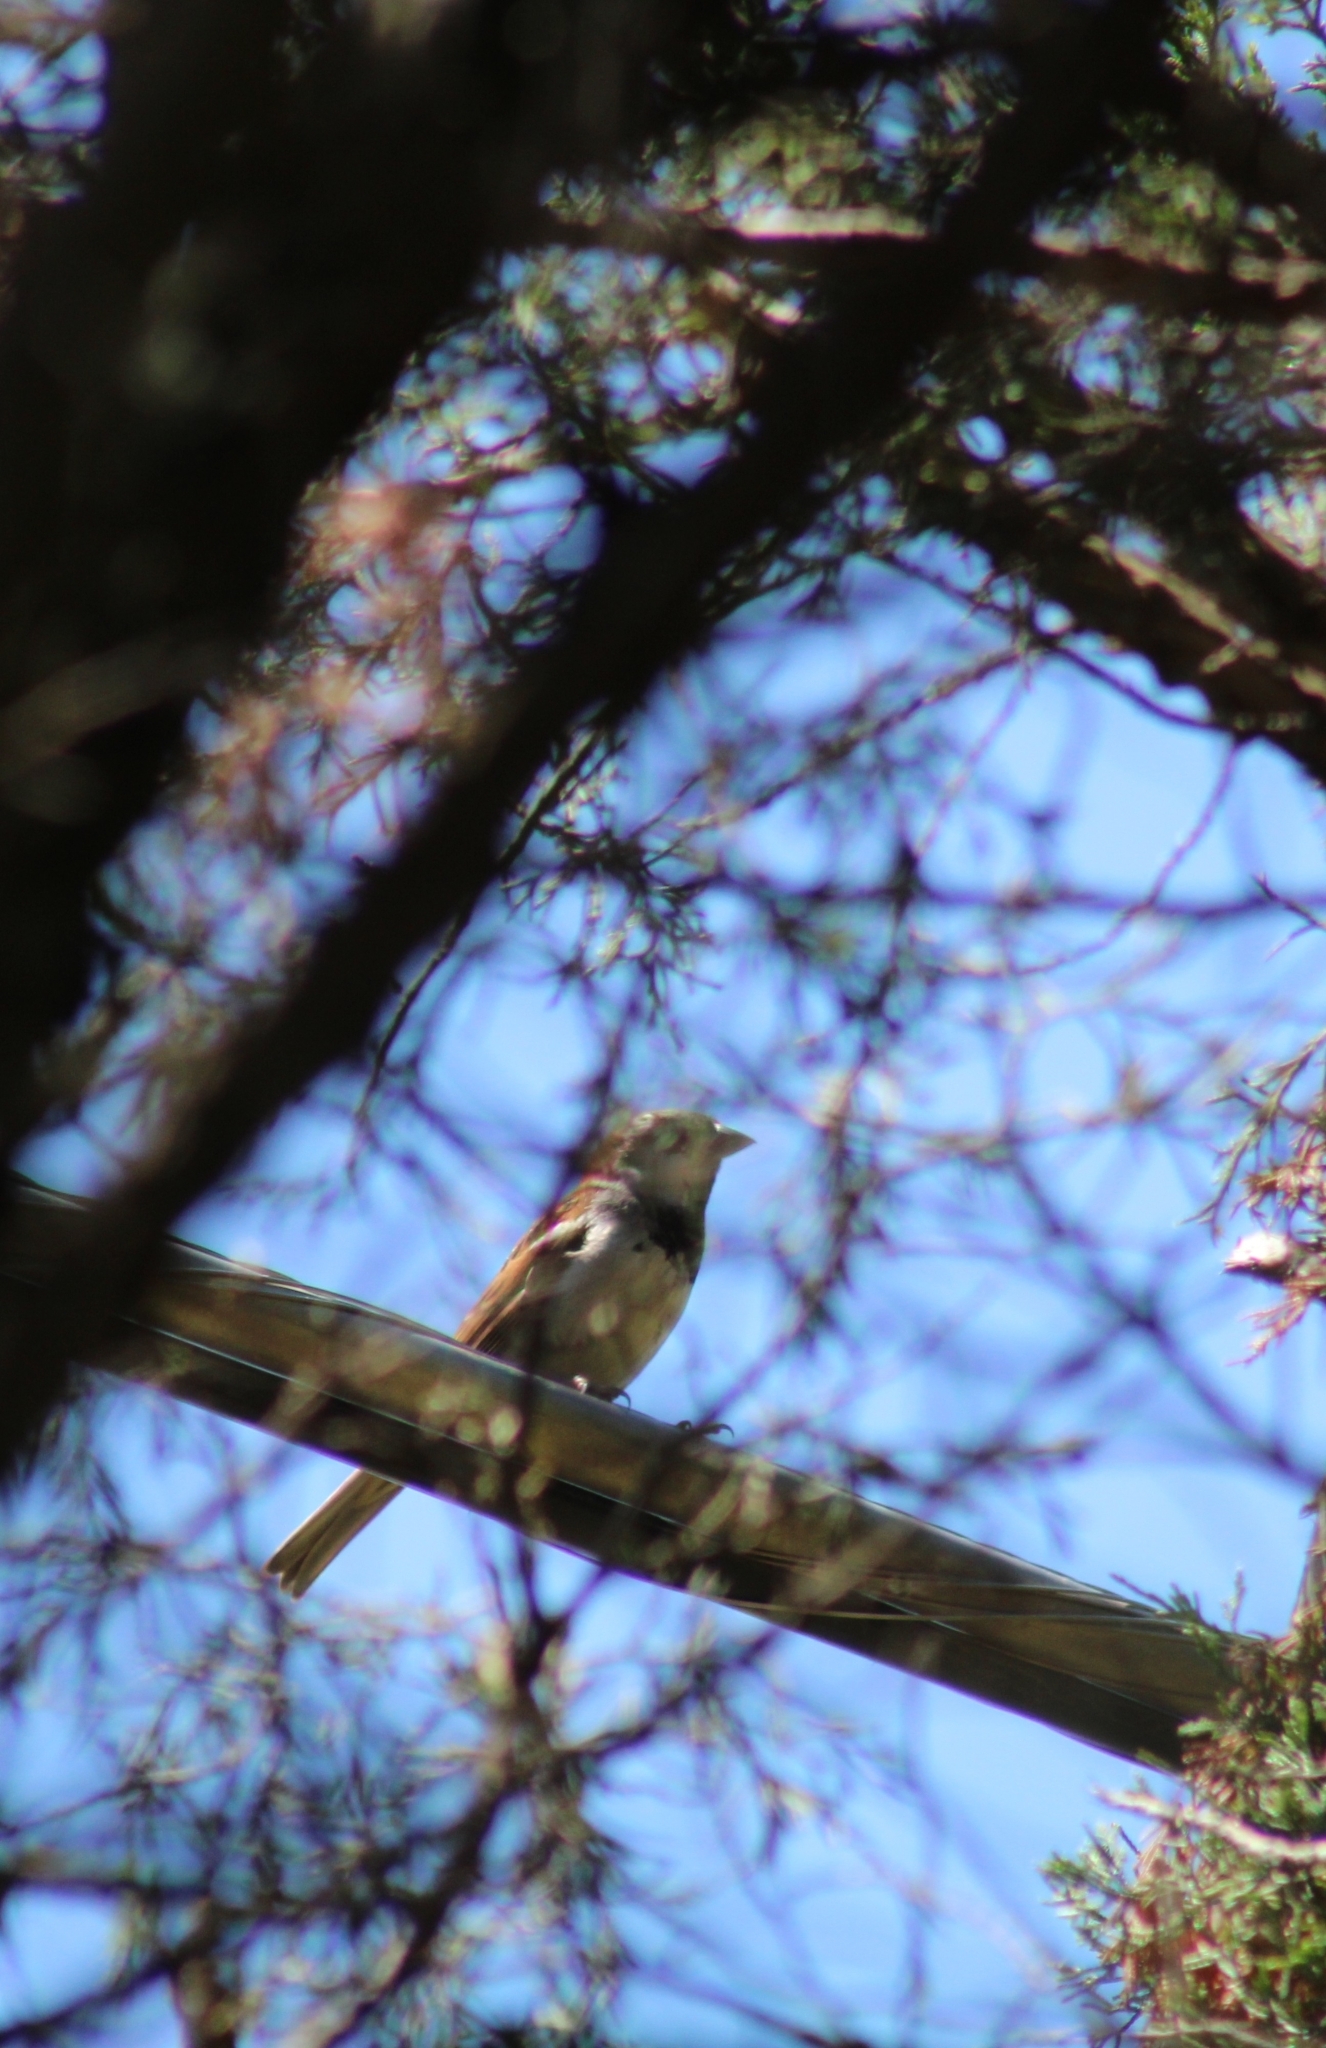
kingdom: Animalia
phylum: Chordata
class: Aves
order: Passeriformes
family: Passeridae
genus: Passer
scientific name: Passer domesticus
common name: House sparrow
